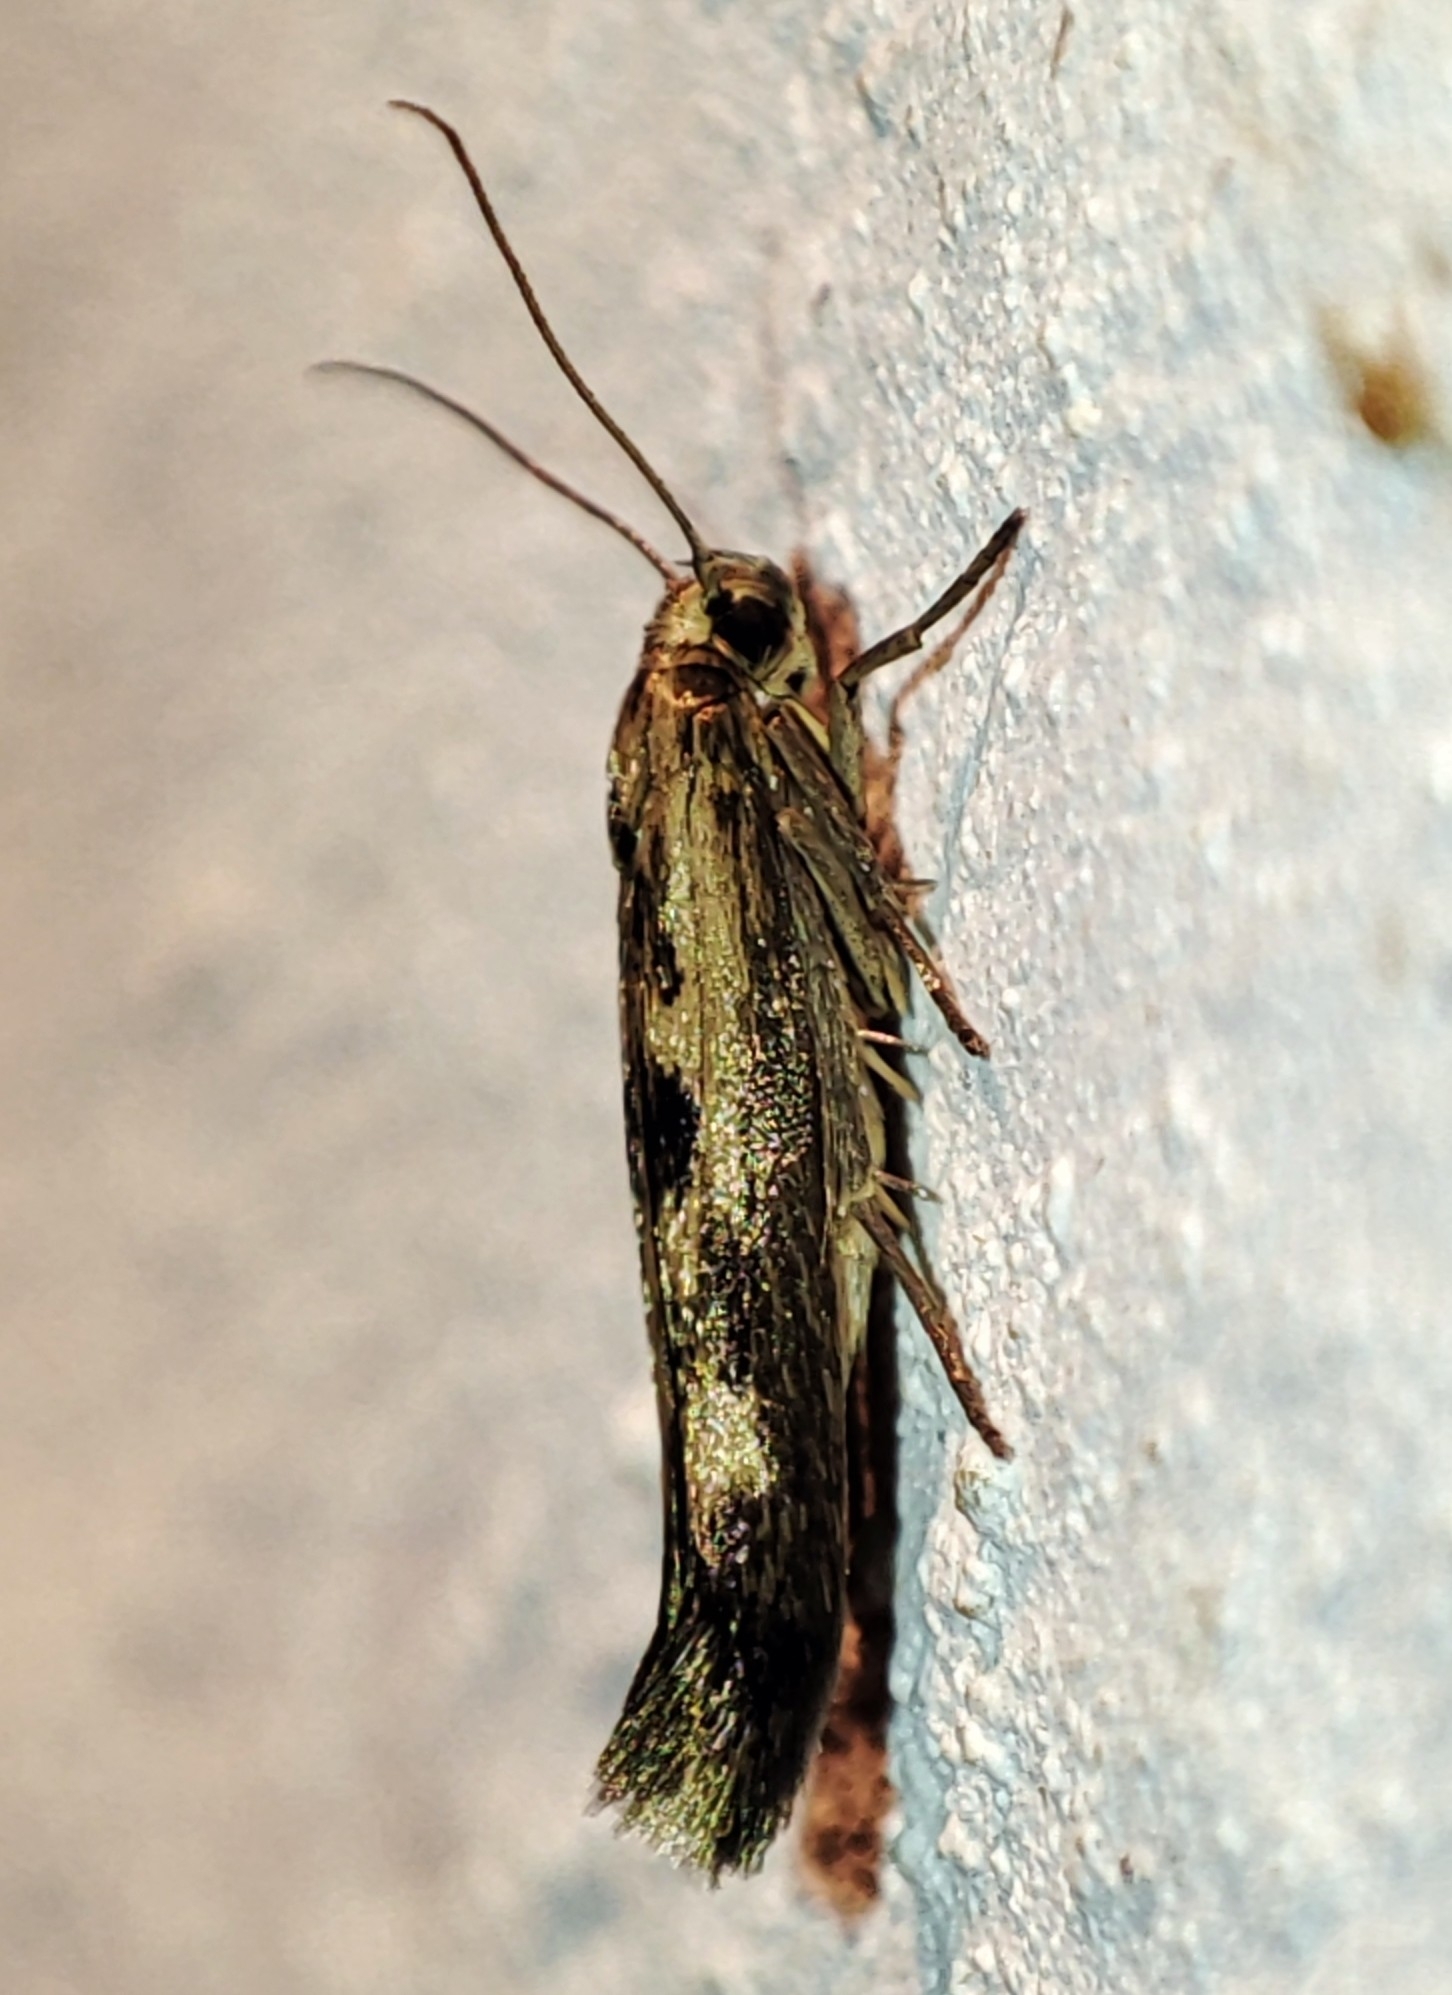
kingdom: Animalia
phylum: Arthropoda
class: Insecta
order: Lepidoptera
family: Scythrididae
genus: Scythris
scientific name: Scythris limbella
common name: Goosefoot owlet
